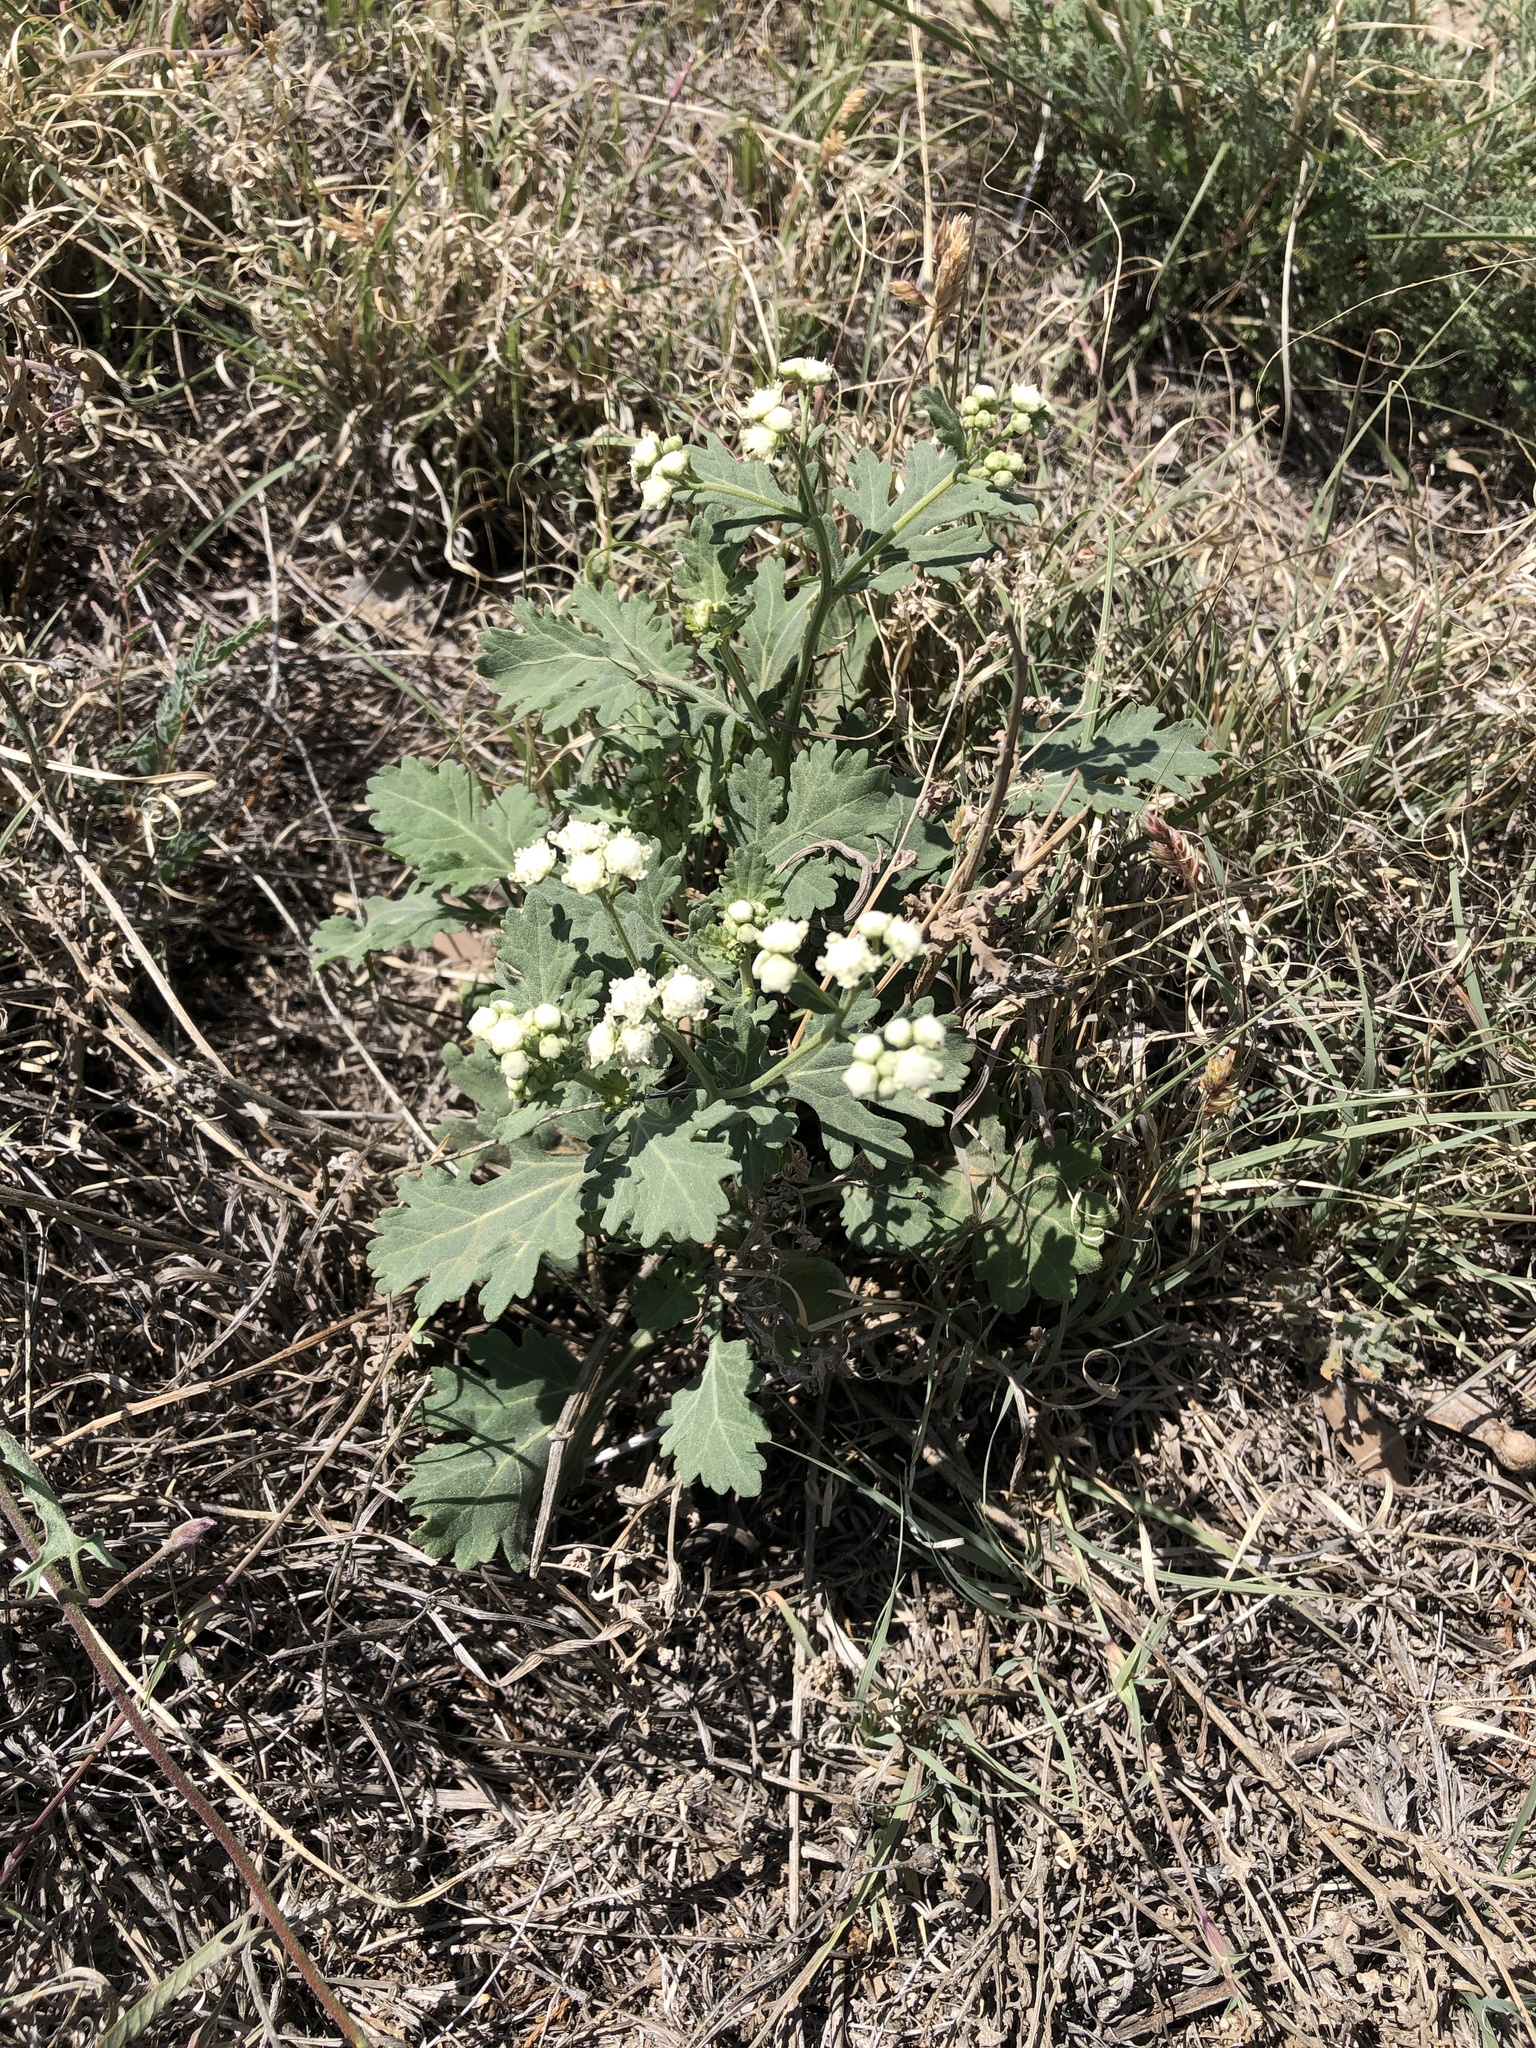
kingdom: Plantae
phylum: Tracheophyta
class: Magnoliopsida
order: Asterales
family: Asteraceae
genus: Parthenium
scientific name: Parthenium confertum
